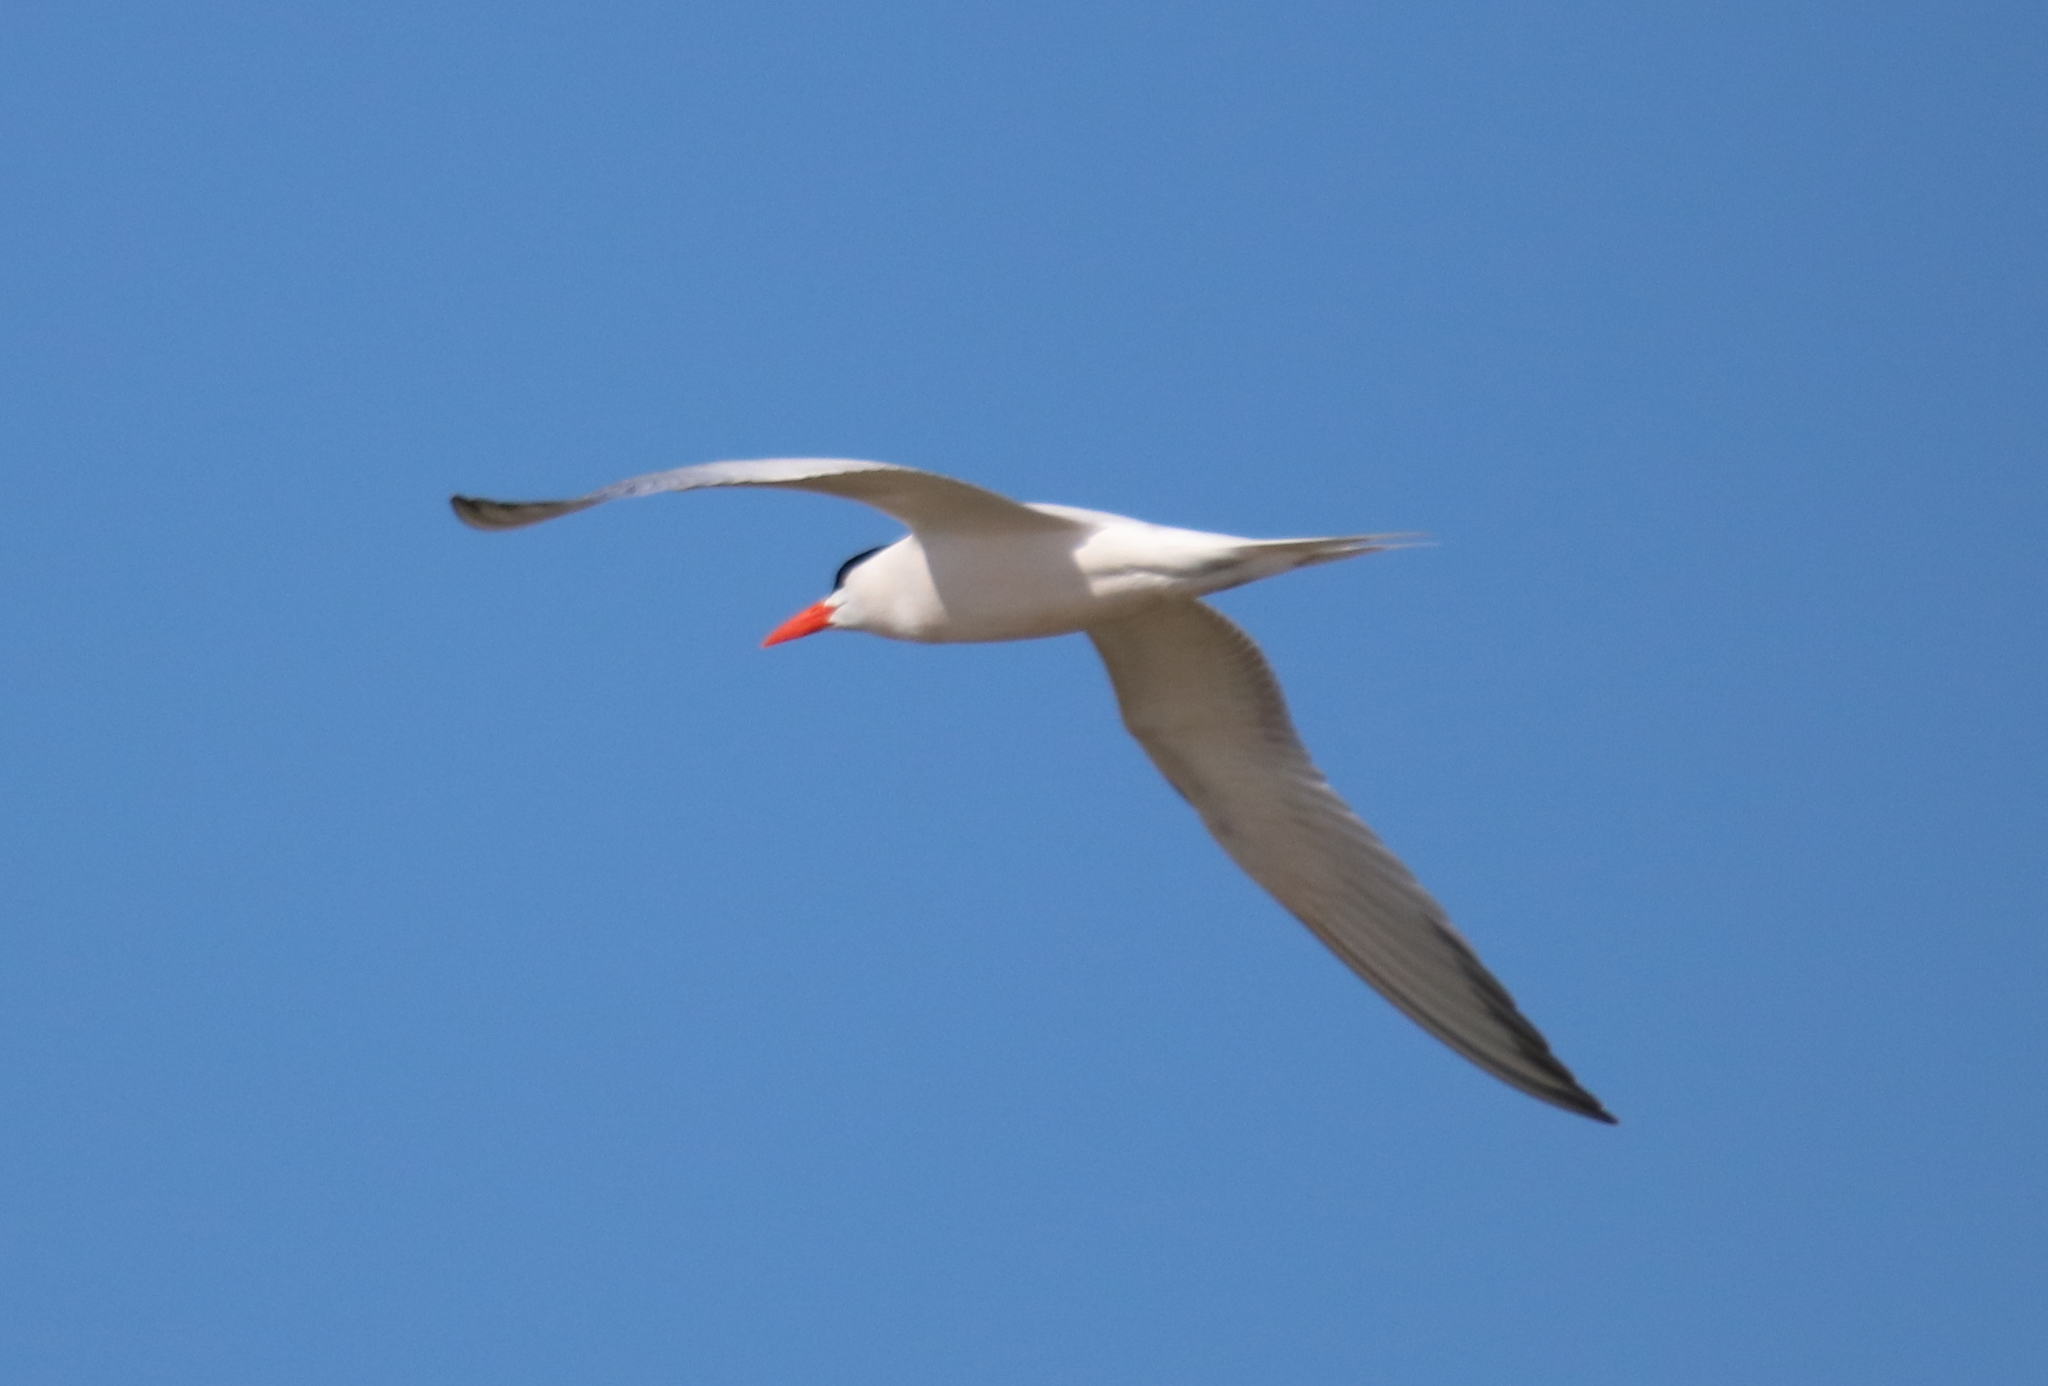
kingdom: Animalia
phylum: Chordata
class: Aves
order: Charadriiformes
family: Laridae
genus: Thalasseus
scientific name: Thalasseus maximus
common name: Royal tern
